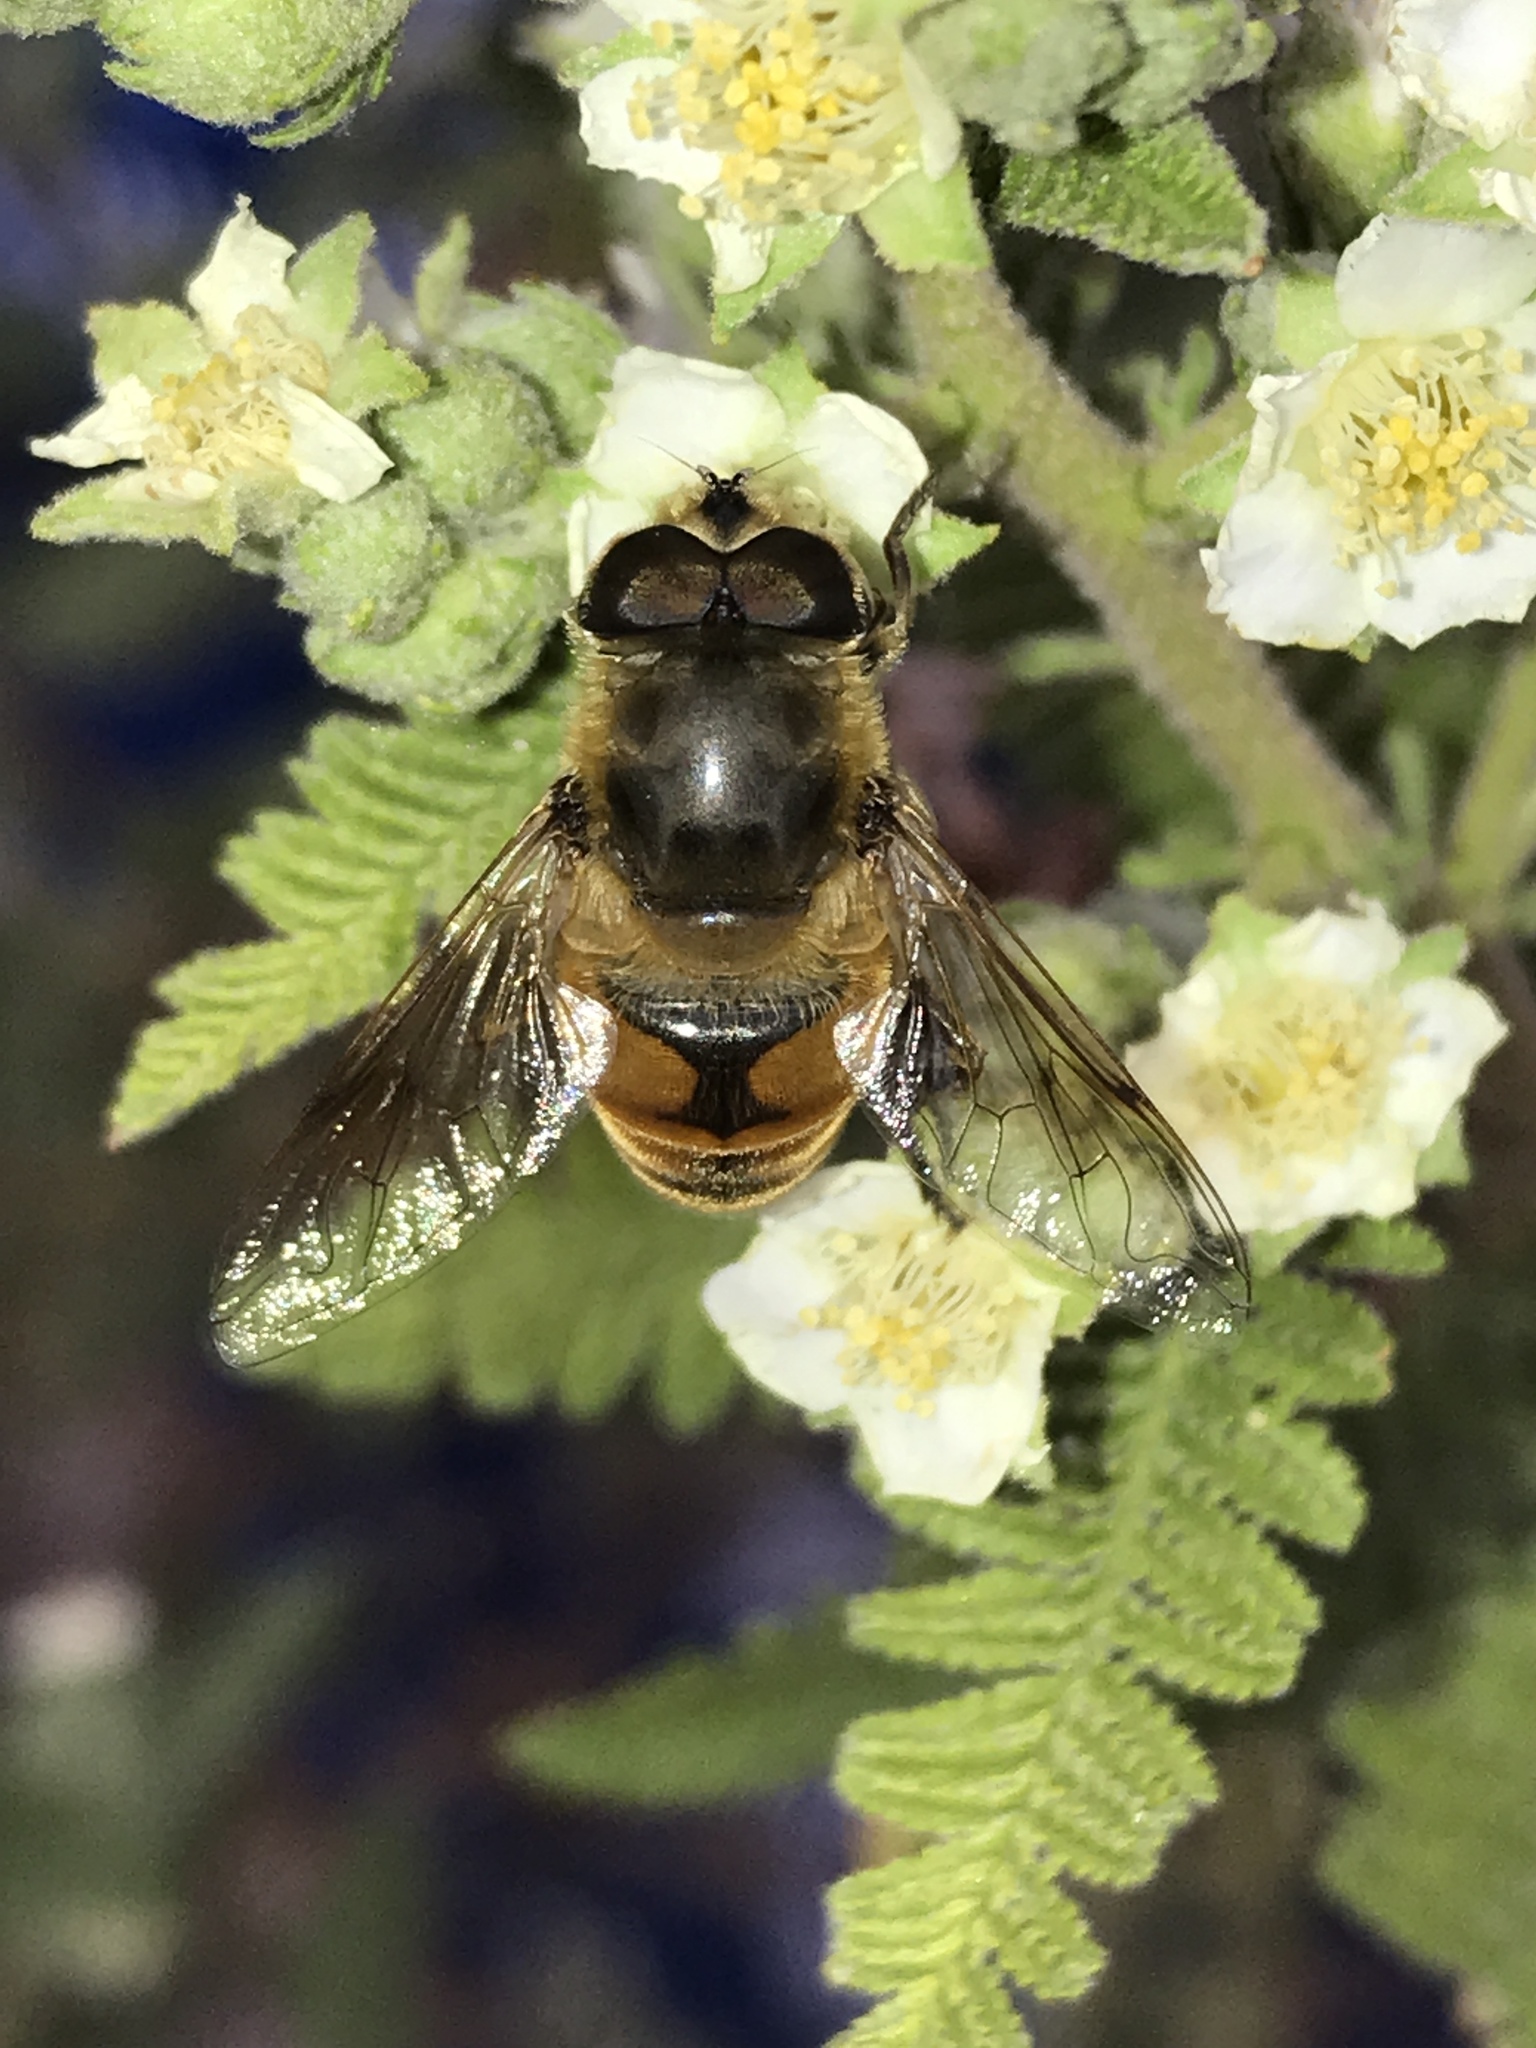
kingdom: Animalia
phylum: Arthropoda
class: Insecta
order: Diptera
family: Syrphidae
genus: Eristalis
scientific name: Eristalis tenax
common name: Drone fly
